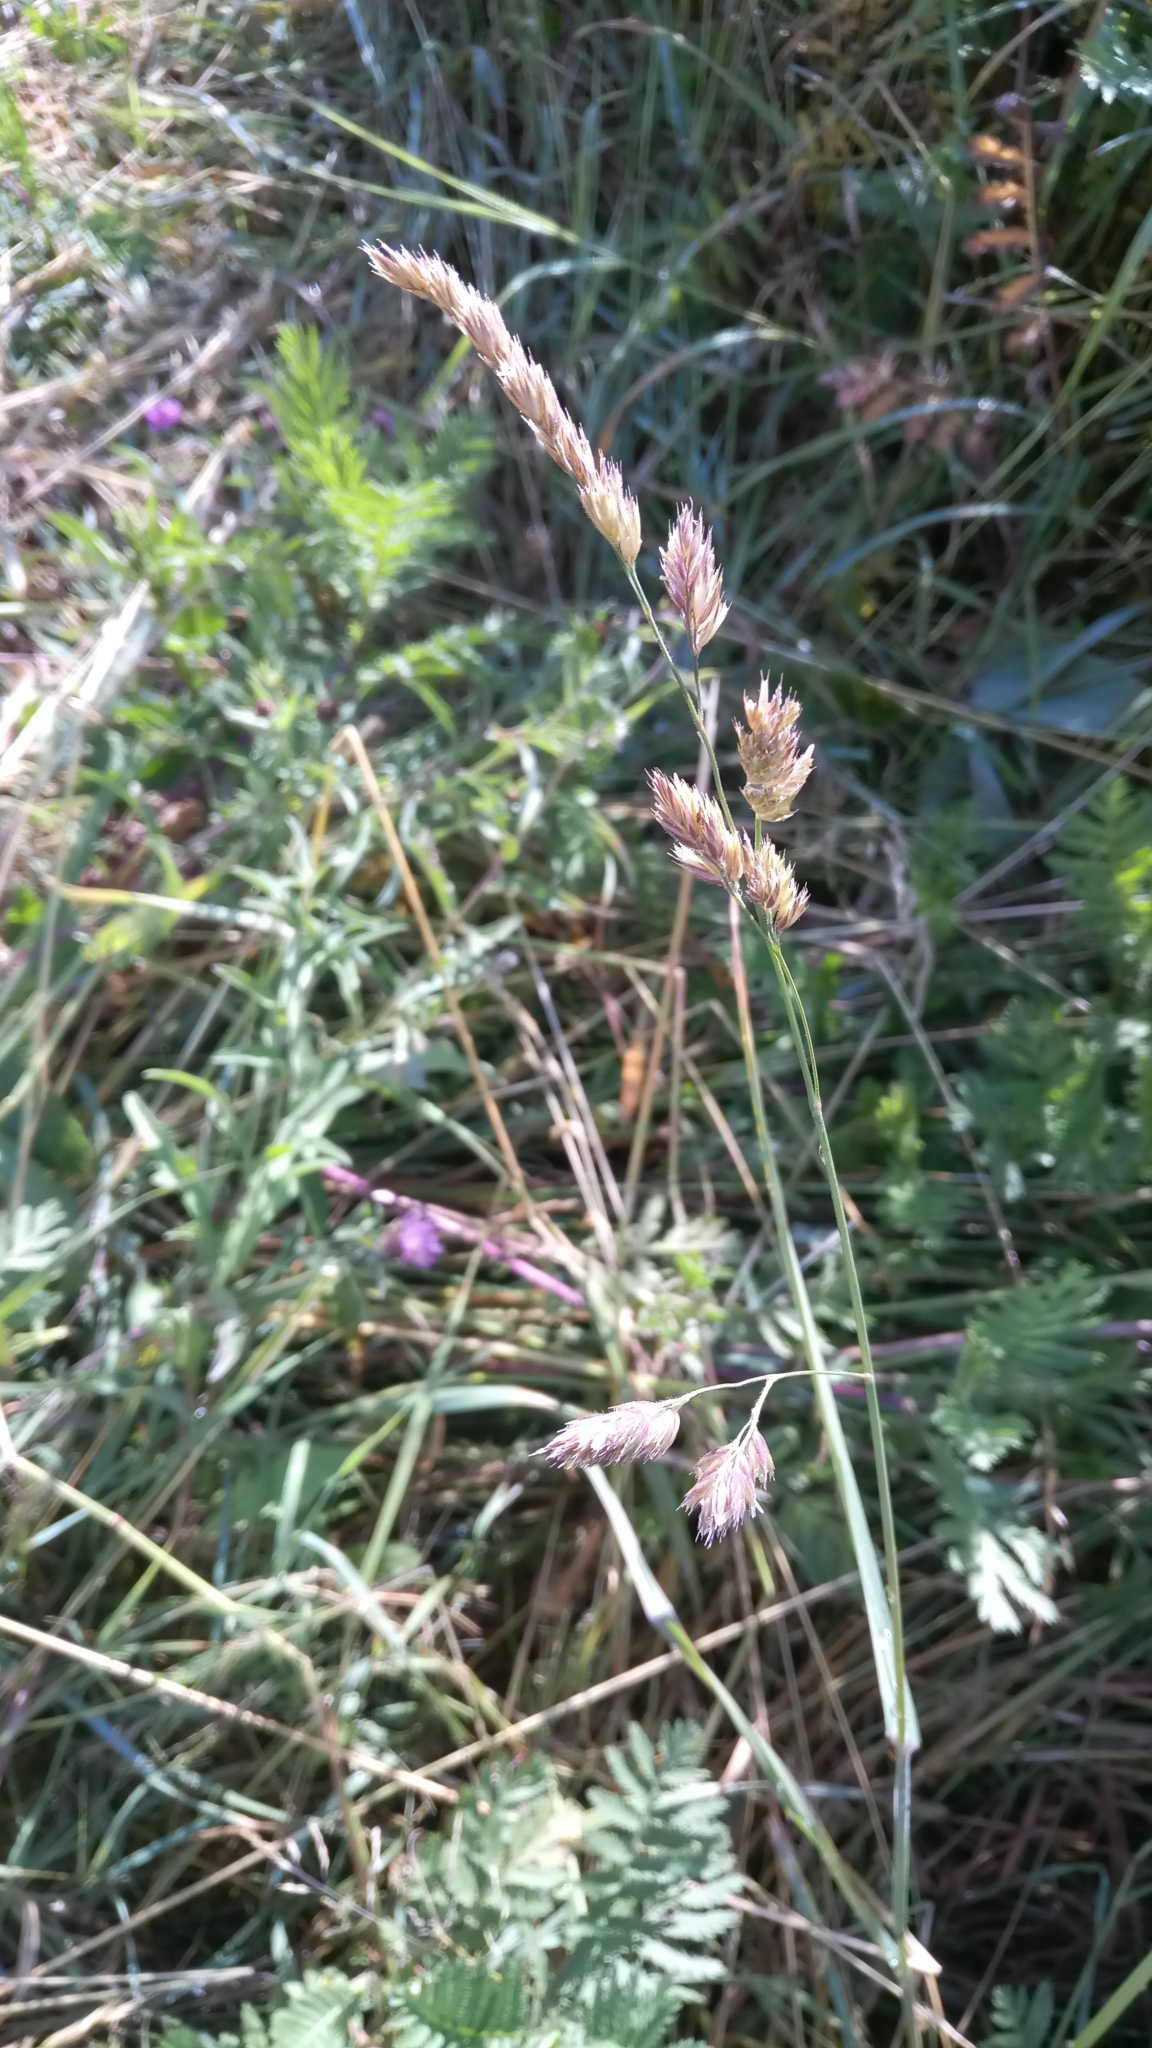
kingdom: Plantae
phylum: Tracheophyta
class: Liliopsida
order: Poales
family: Poaceae
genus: Dactylis
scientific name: Dactylis glomerata
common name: Orchardgrass
